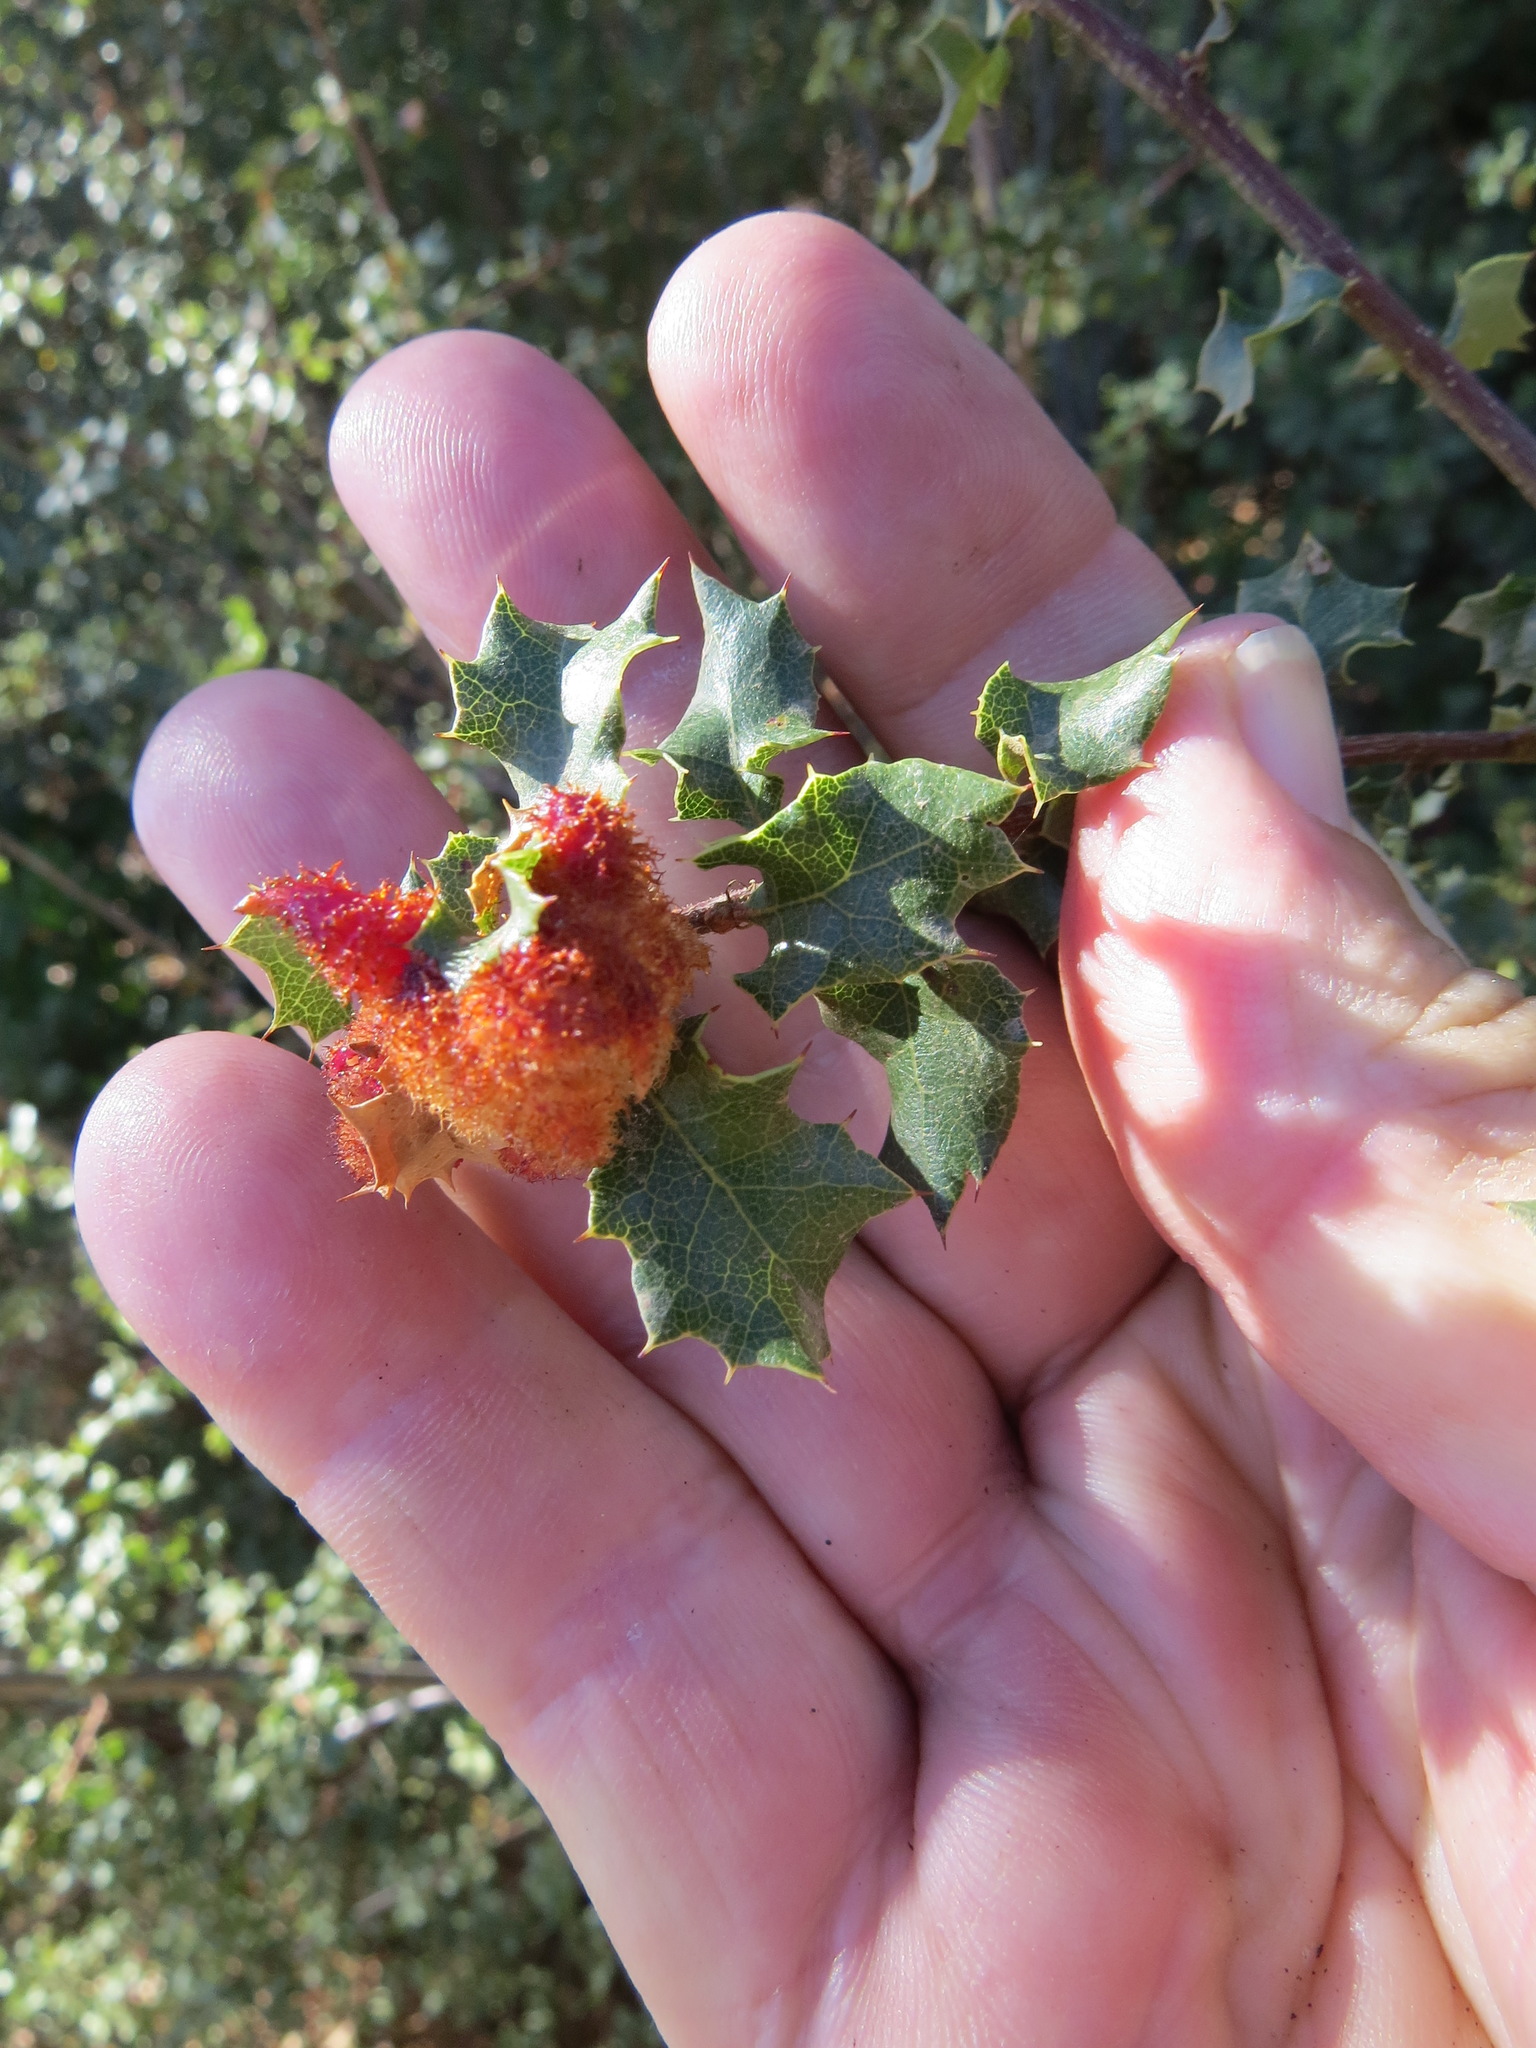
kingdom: Animalia
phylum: Arthropoda
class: Insecta
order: Hymenoptera
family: Cynipidae
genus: Andricus
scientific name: Andricus
